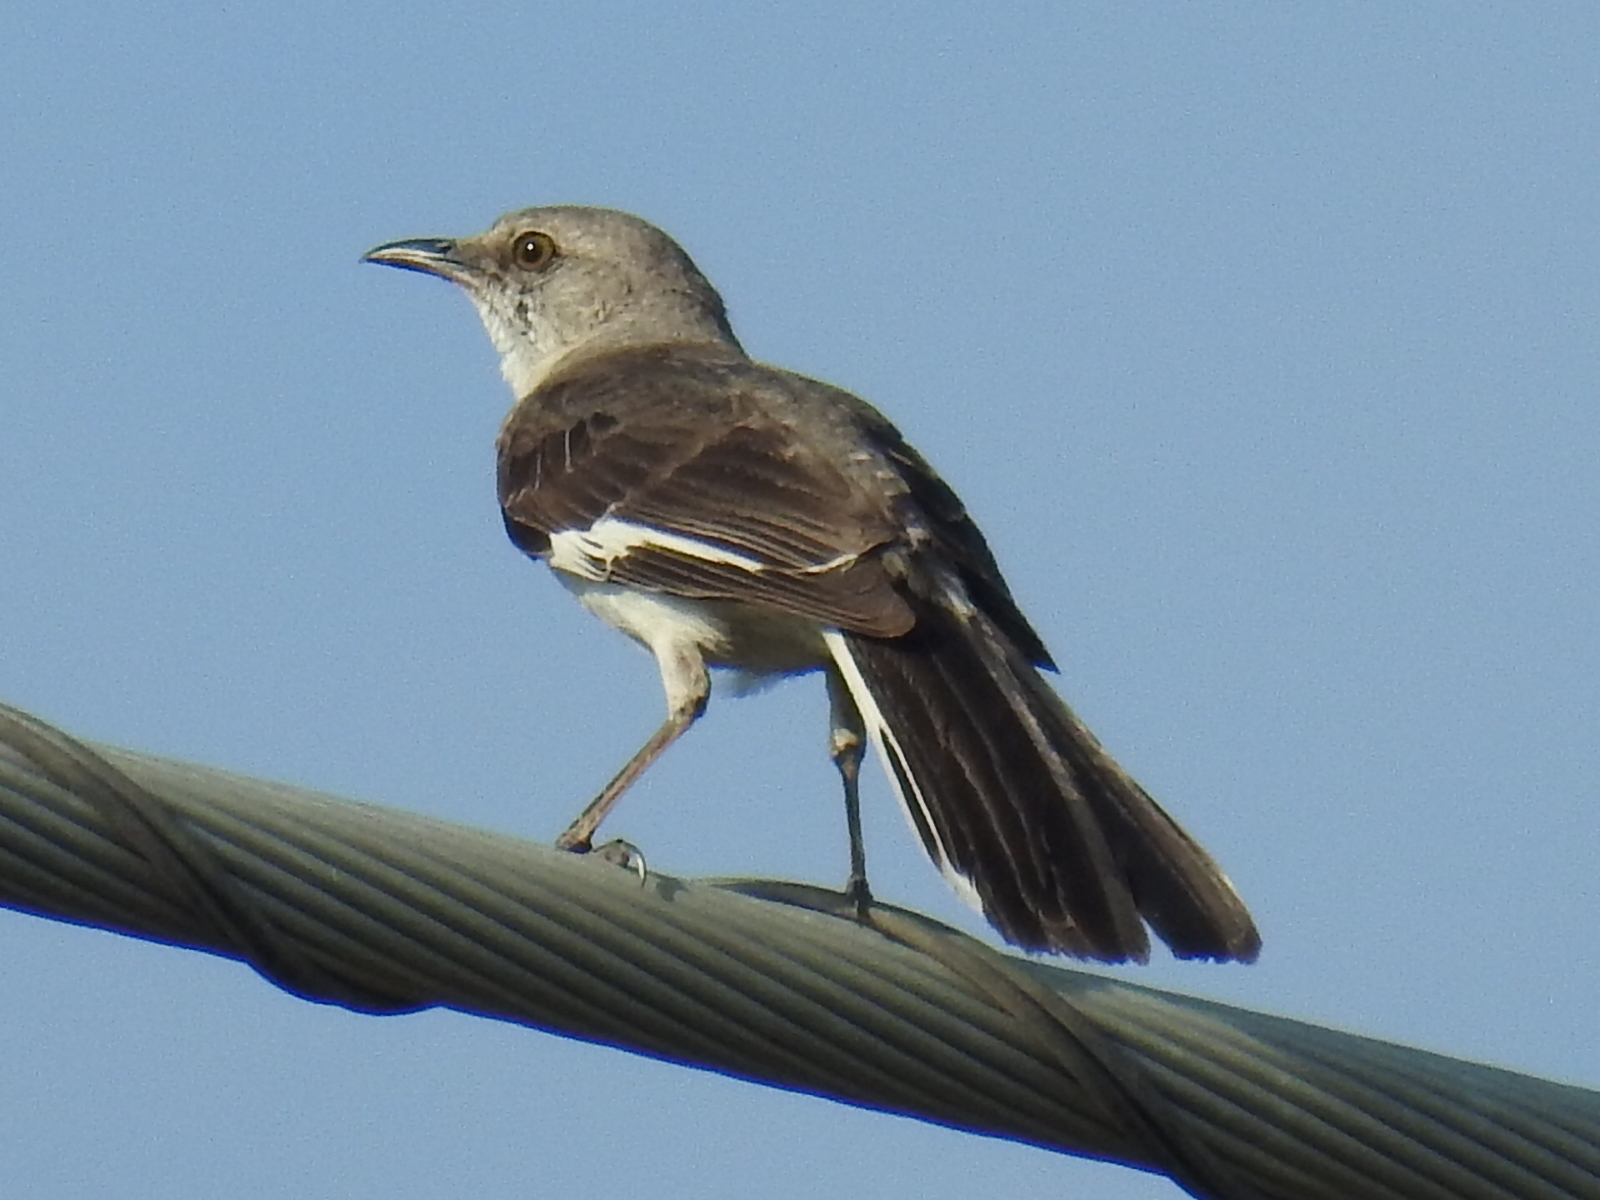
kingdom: Animalia
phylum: Chordata
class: Aves
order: Passeriformes
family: Mimidae
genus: Mimus
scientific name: Mimus polyglottos
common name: Northern mockingbird
